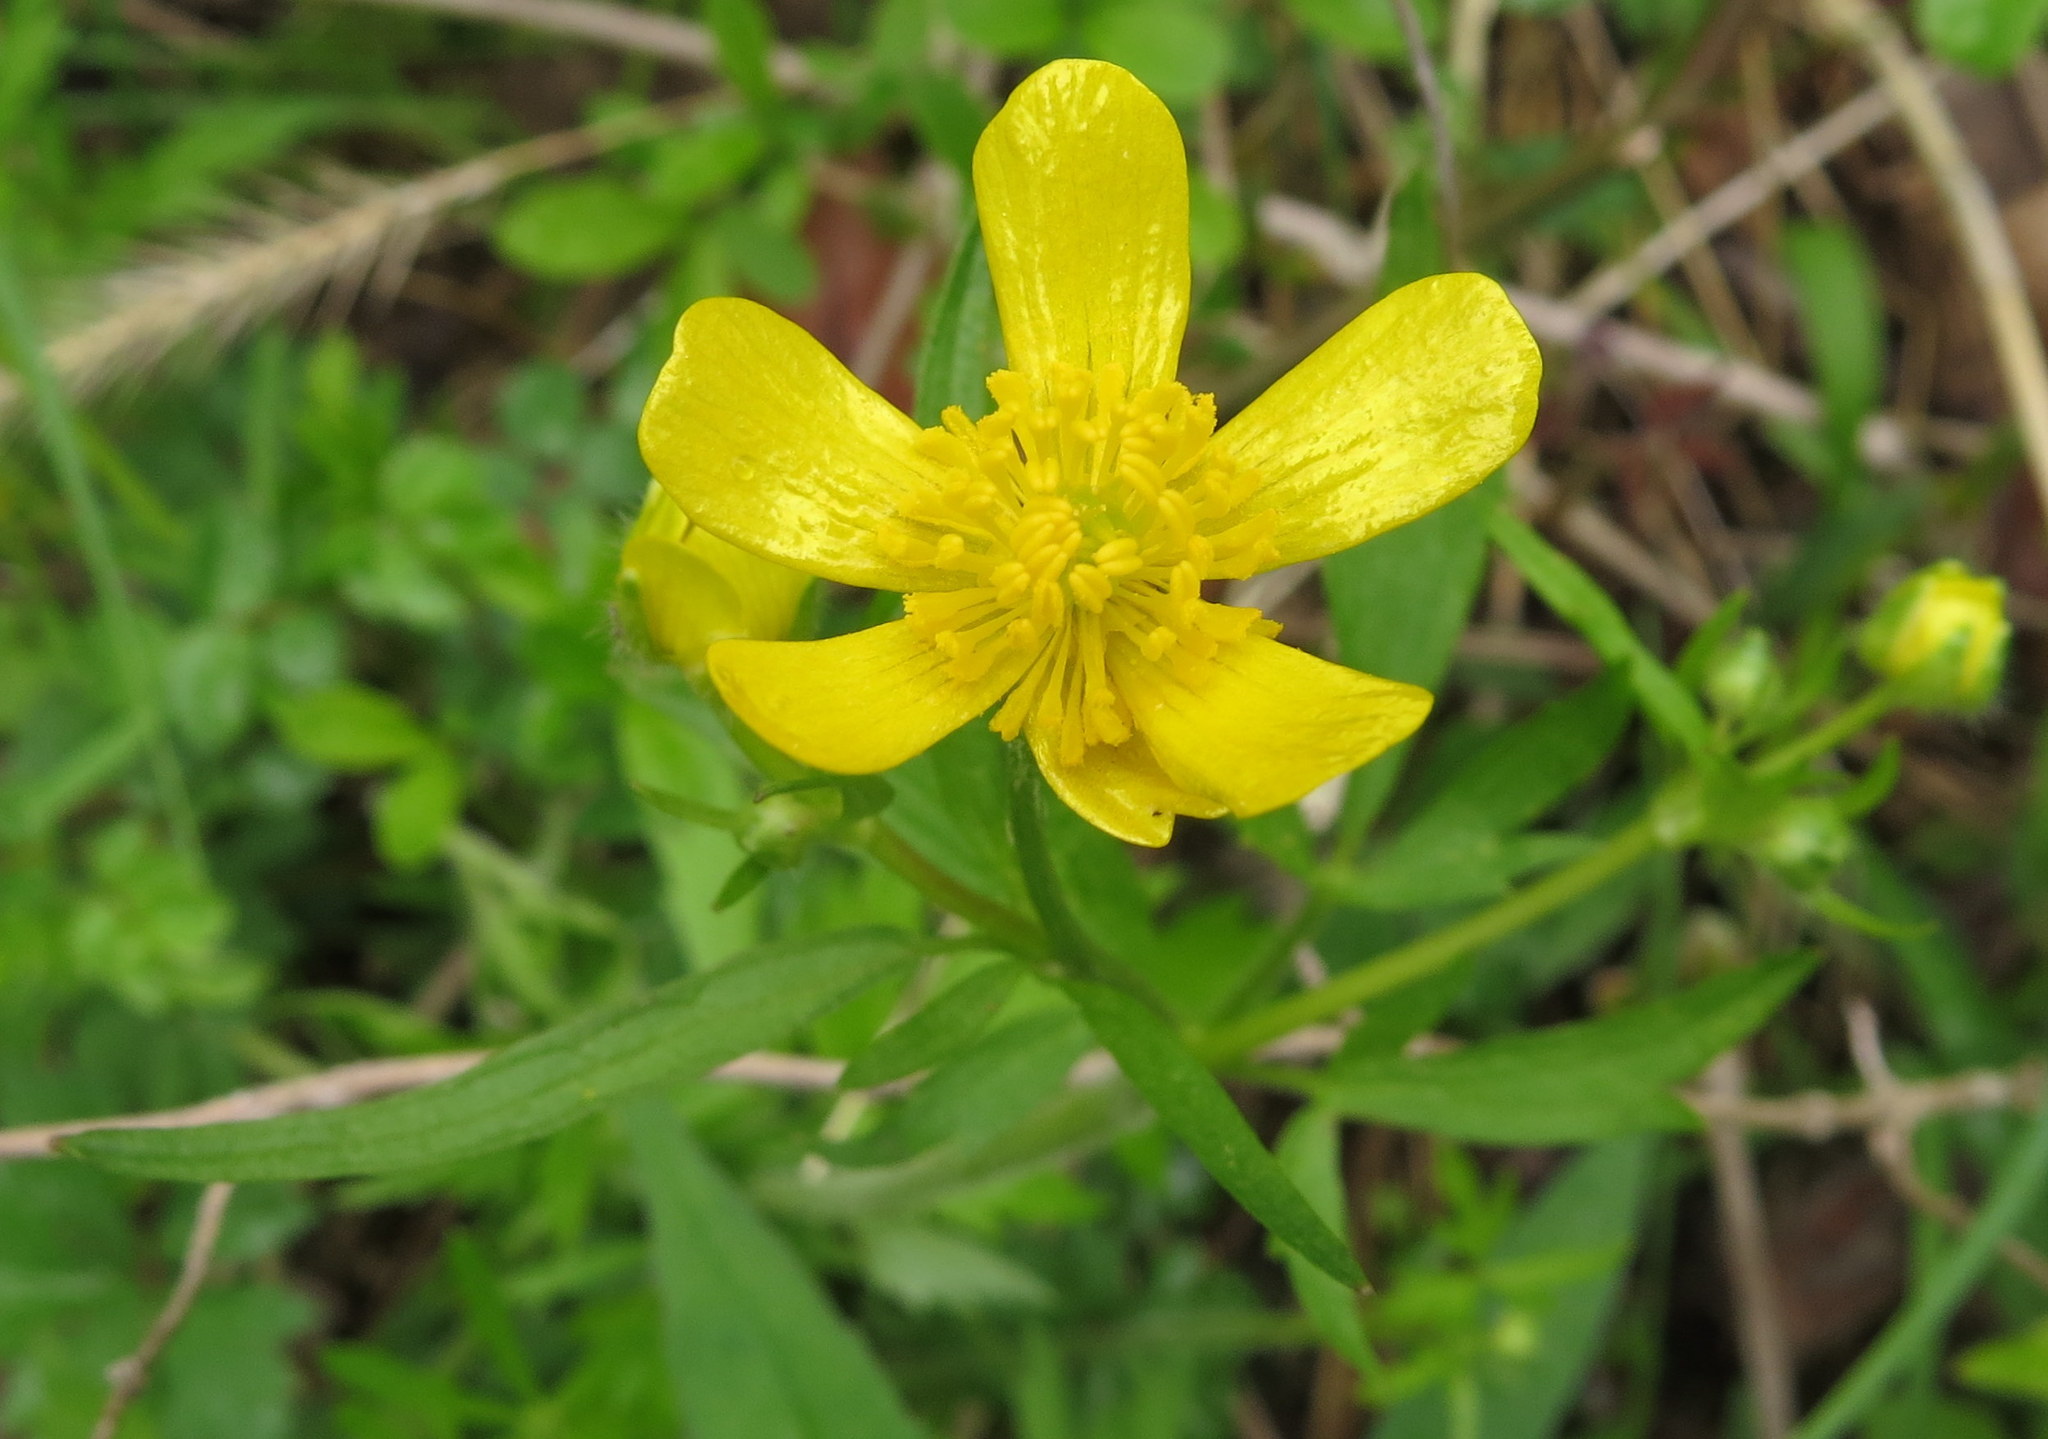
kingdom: Plantae
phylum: Tracheophyta
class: Magnoliopsida
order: Ranunculales
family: Ranunculaceae
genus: Ranunculus
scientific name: Ranunculus hispidus
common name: Bristly buttercup
